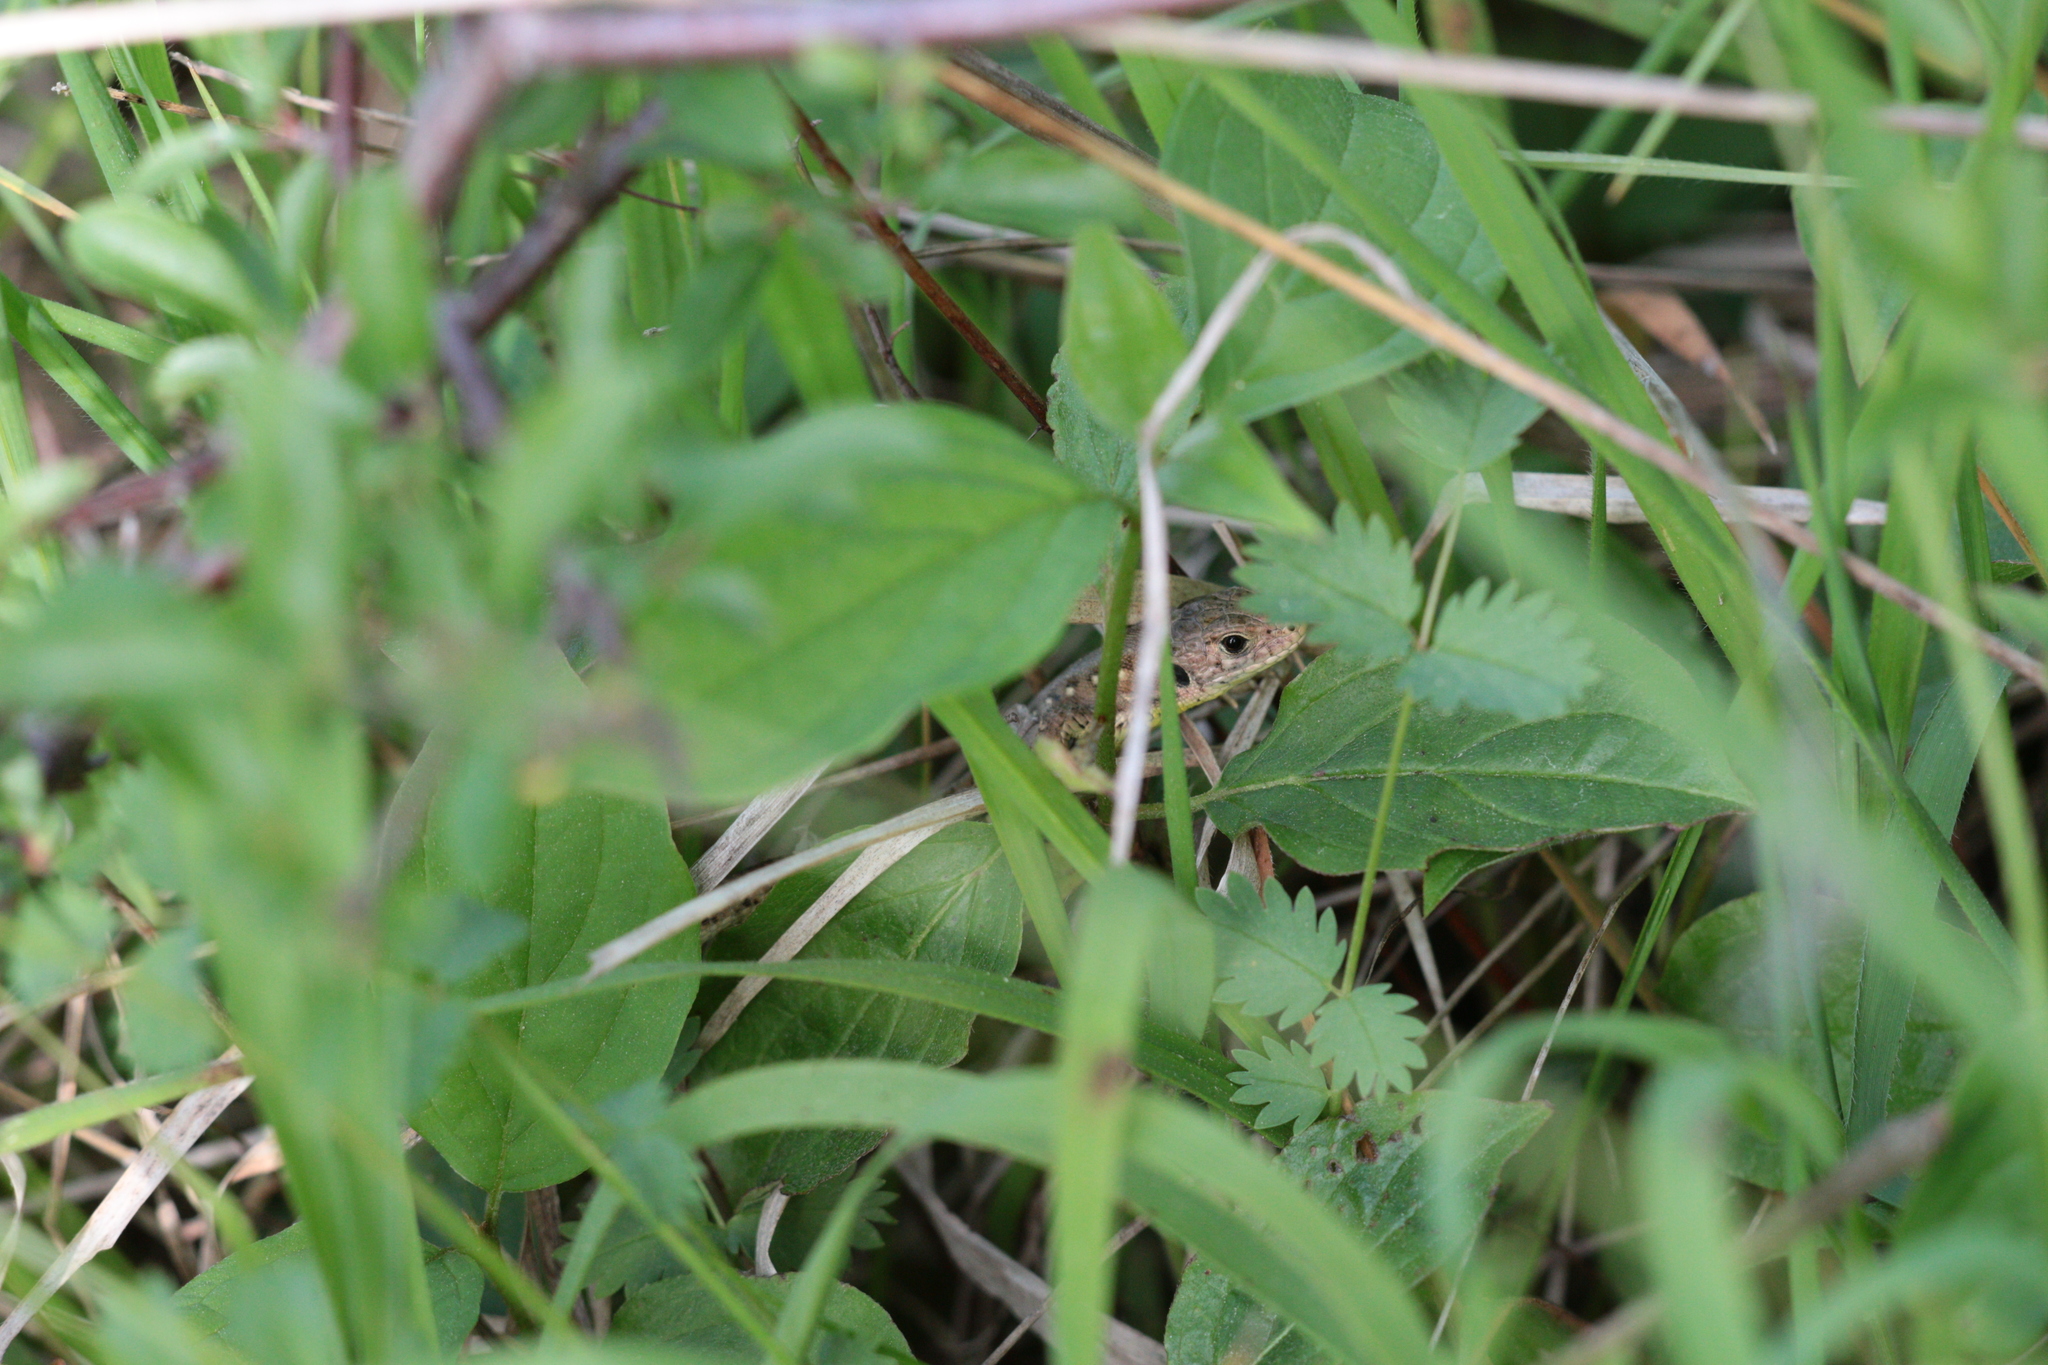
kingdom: Animalia
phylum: Chordata
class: Squamata
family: Lacertidae
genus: Lacerta
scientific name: Lacerta agilis
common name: Sand lizard
